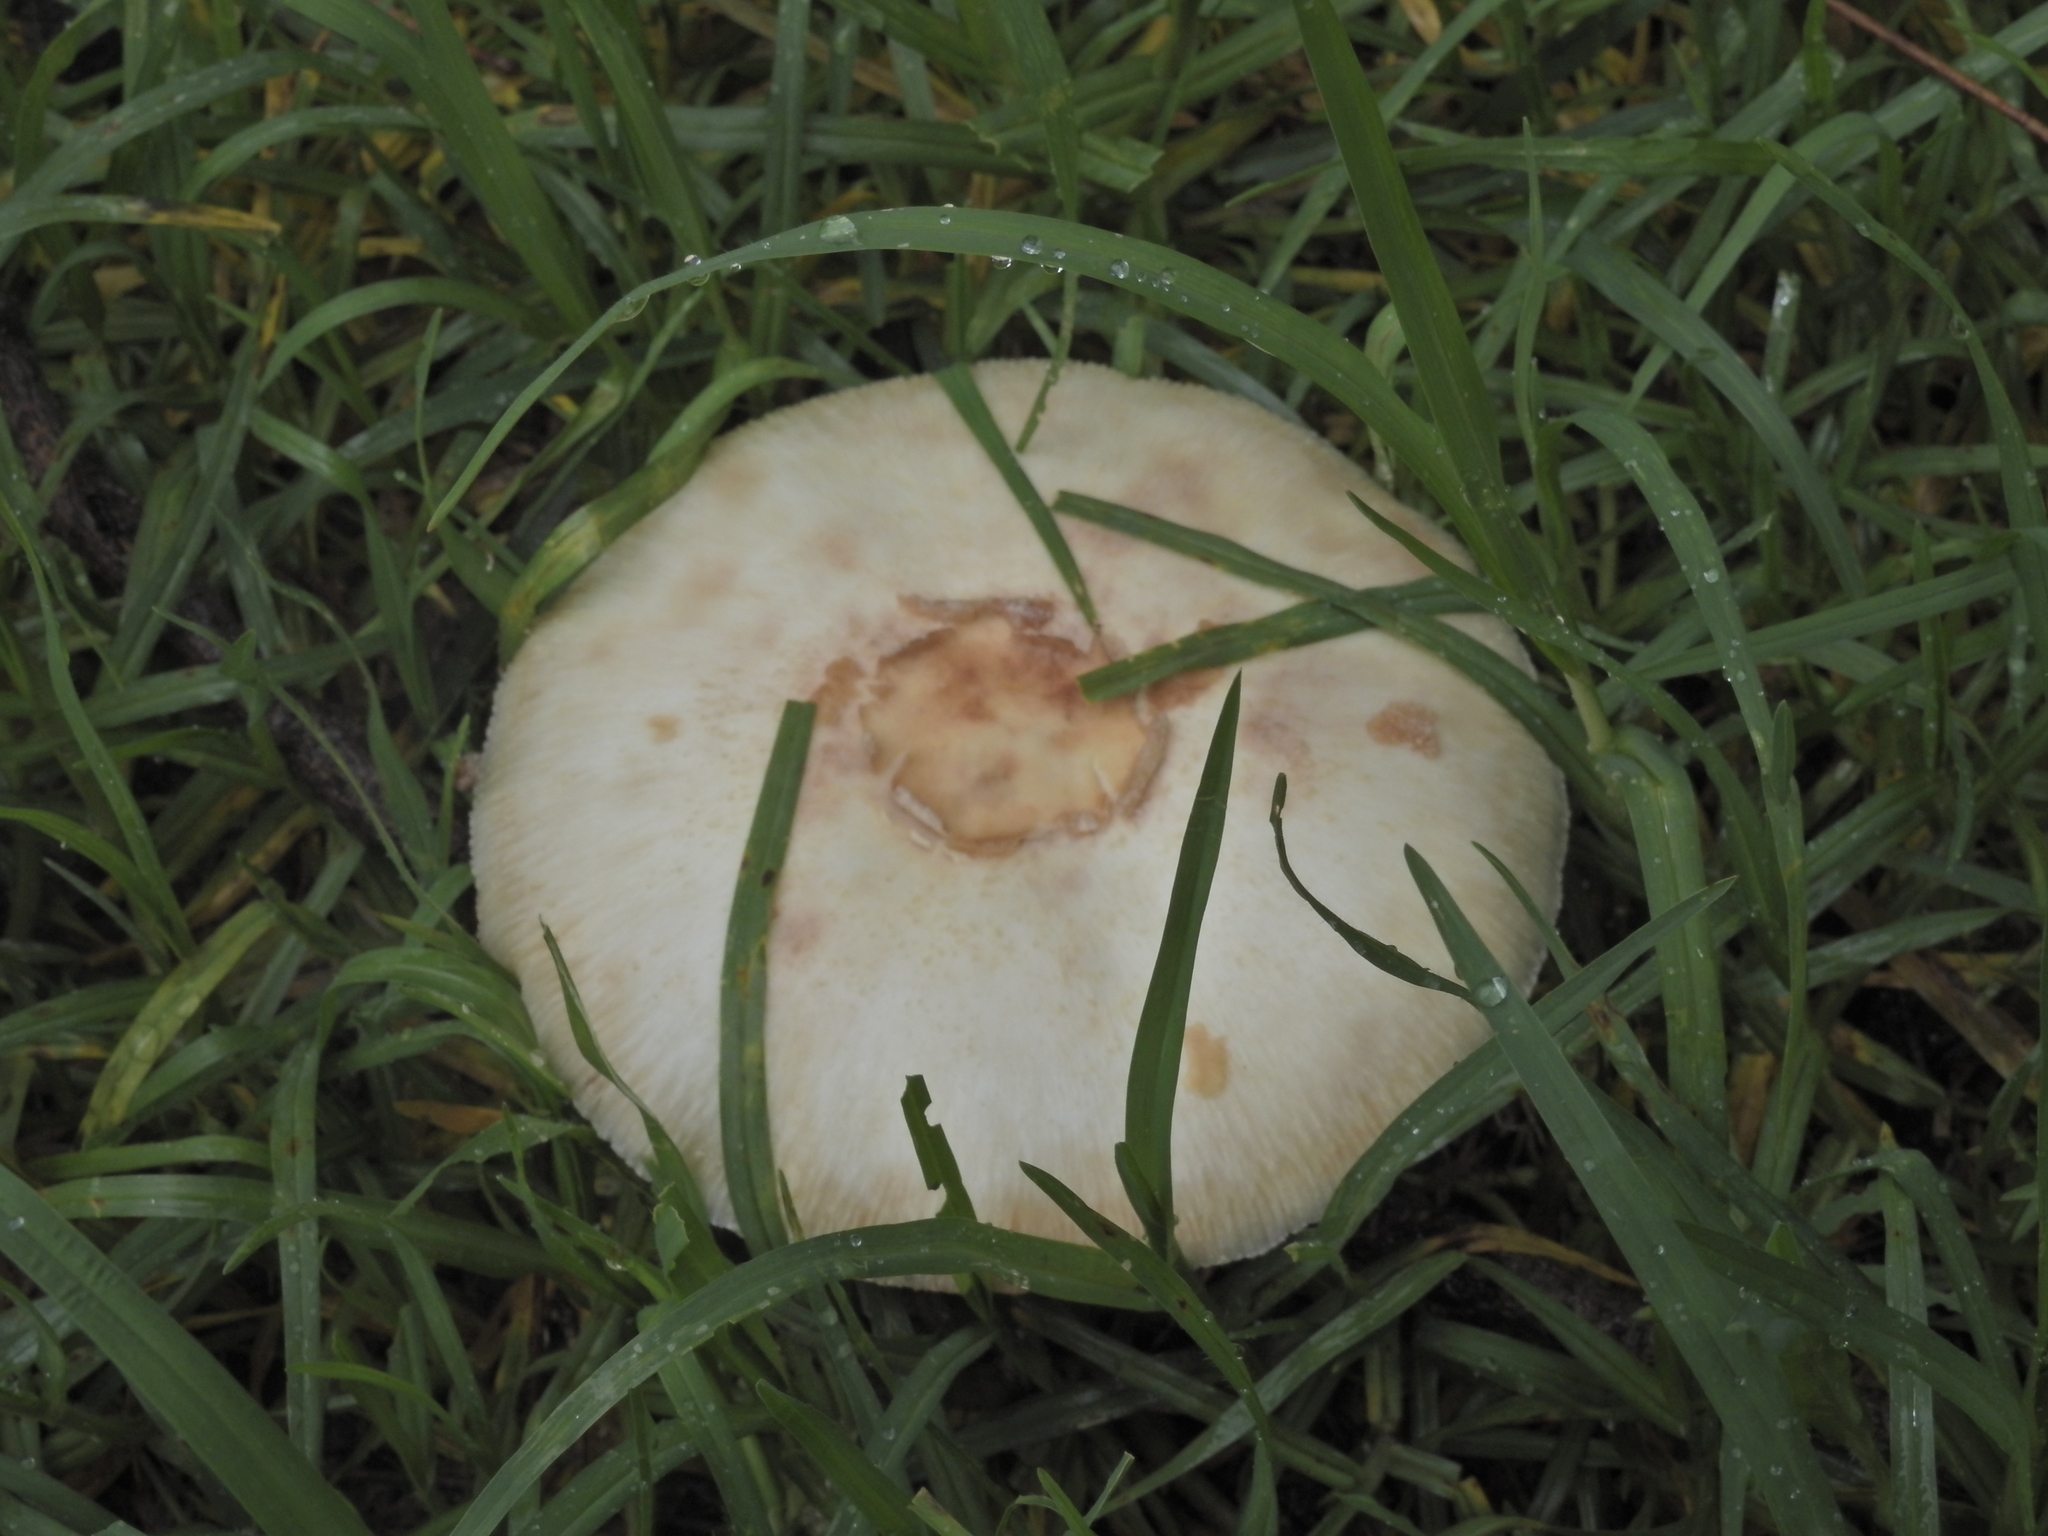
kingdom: Fungi
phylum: Basidiomycota
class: Agaricomycetes
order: Agaricales
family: Agaricaceae
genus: Chlorophyllum
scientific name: Chlorophyllum molybdites
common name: False parasol
